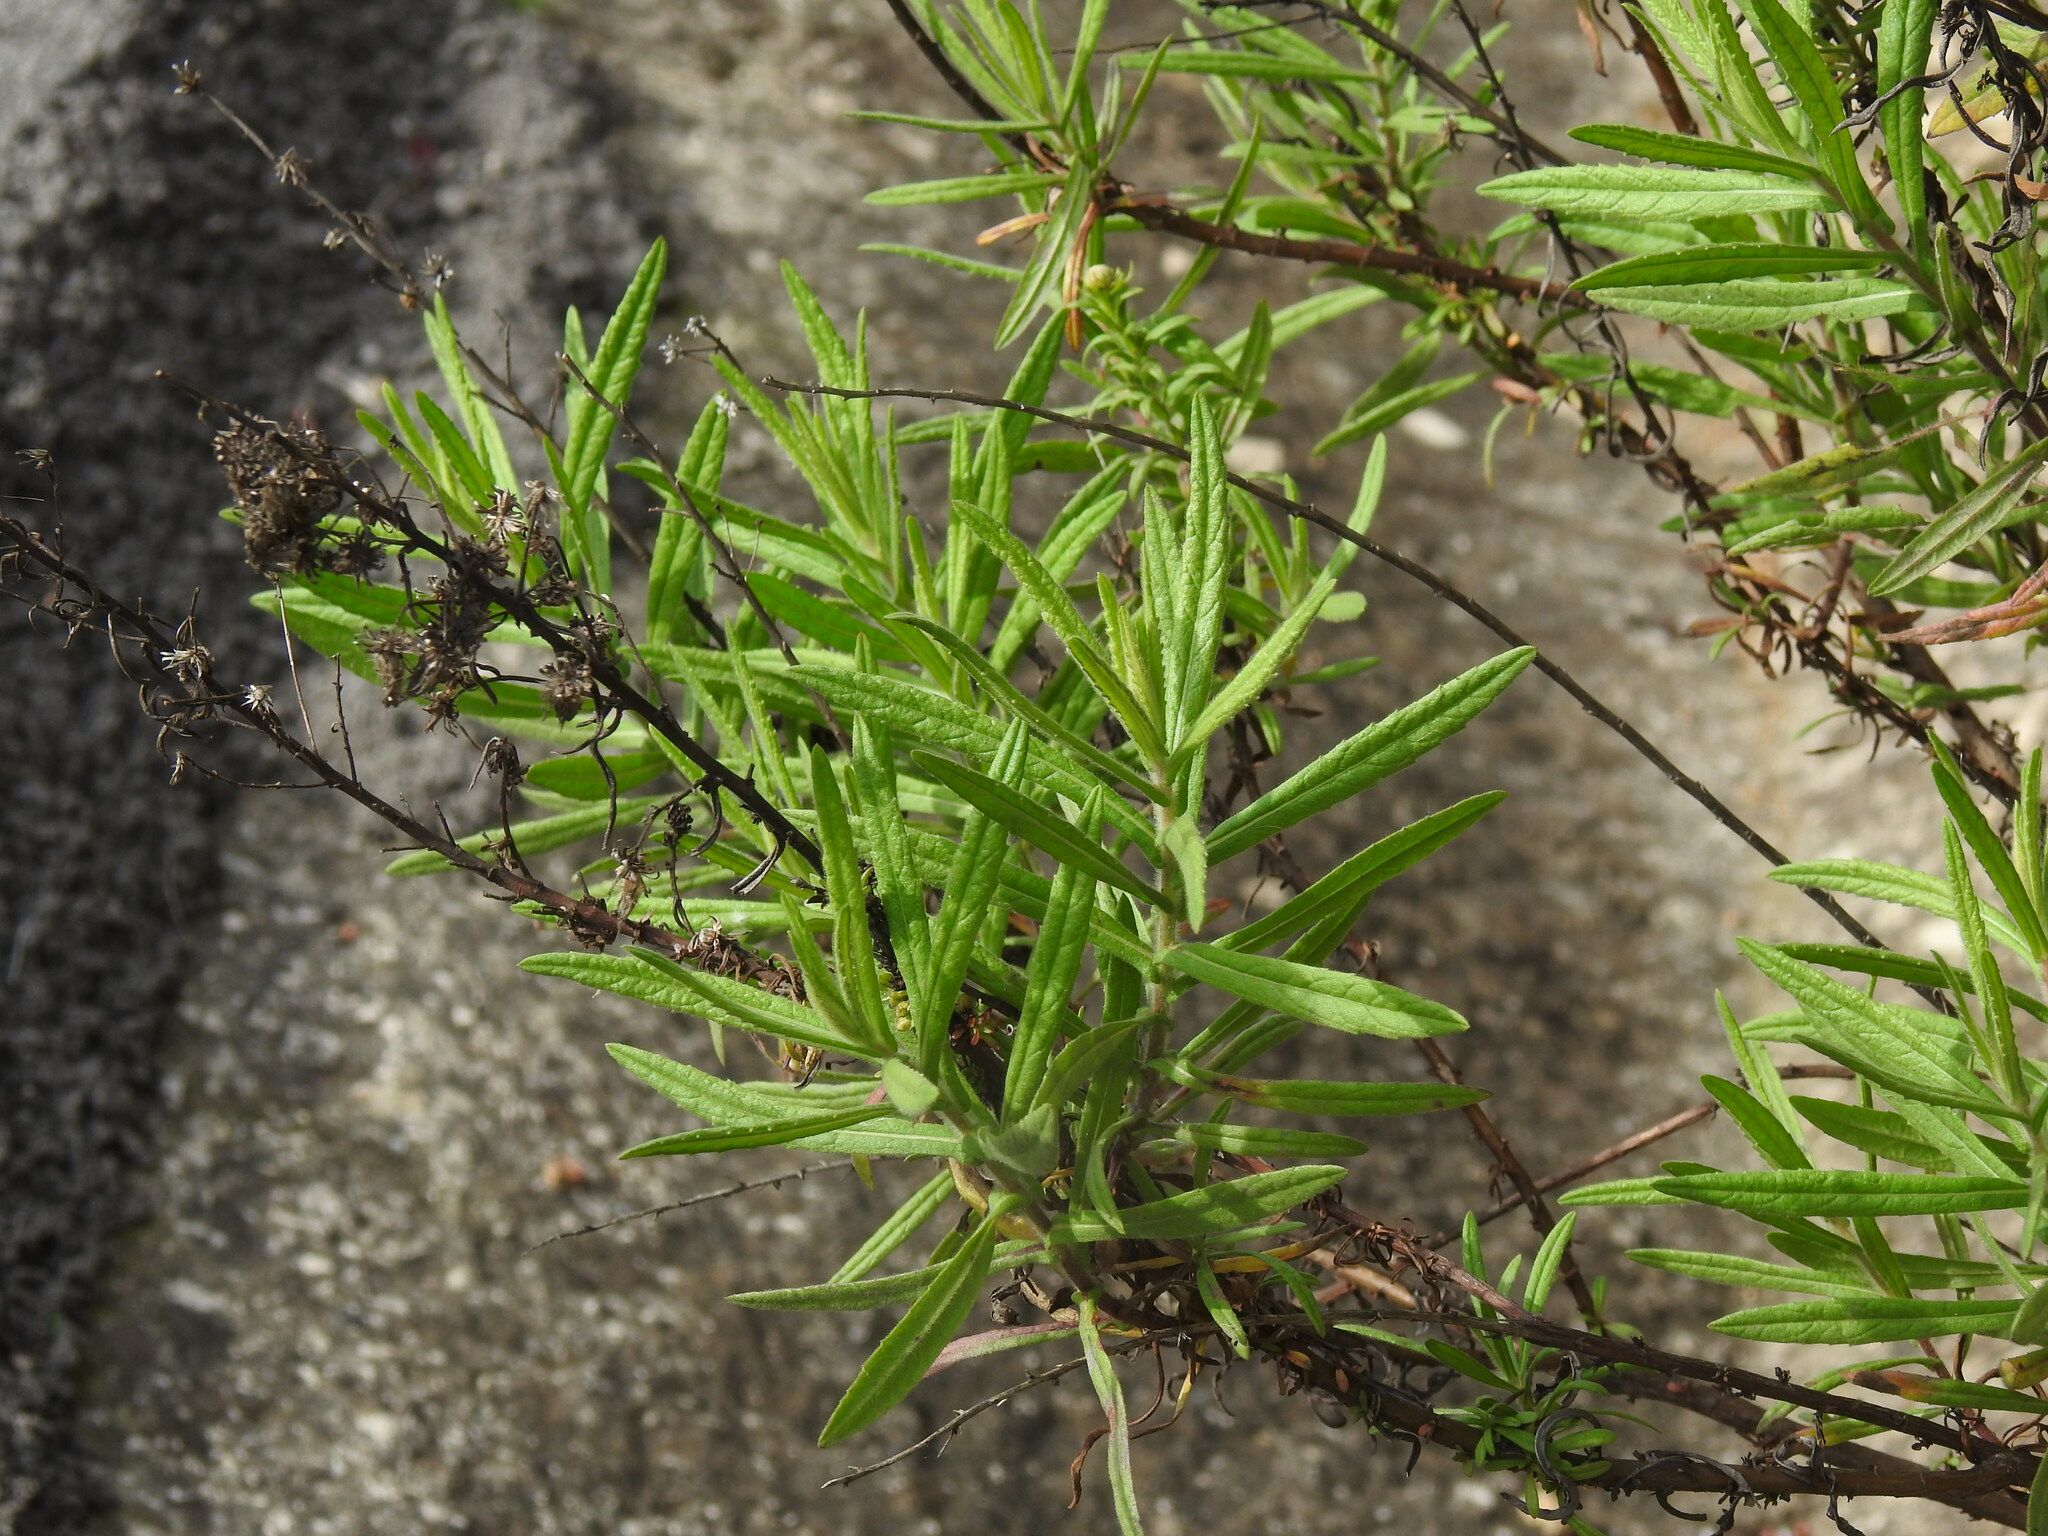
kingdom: Plantae
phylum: Tracheophyta
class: Magnoliopsida
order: Asterales
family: Asteraceae
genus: Dittrichia
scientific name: Dittrichia viscosa
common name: Woody fleabane
